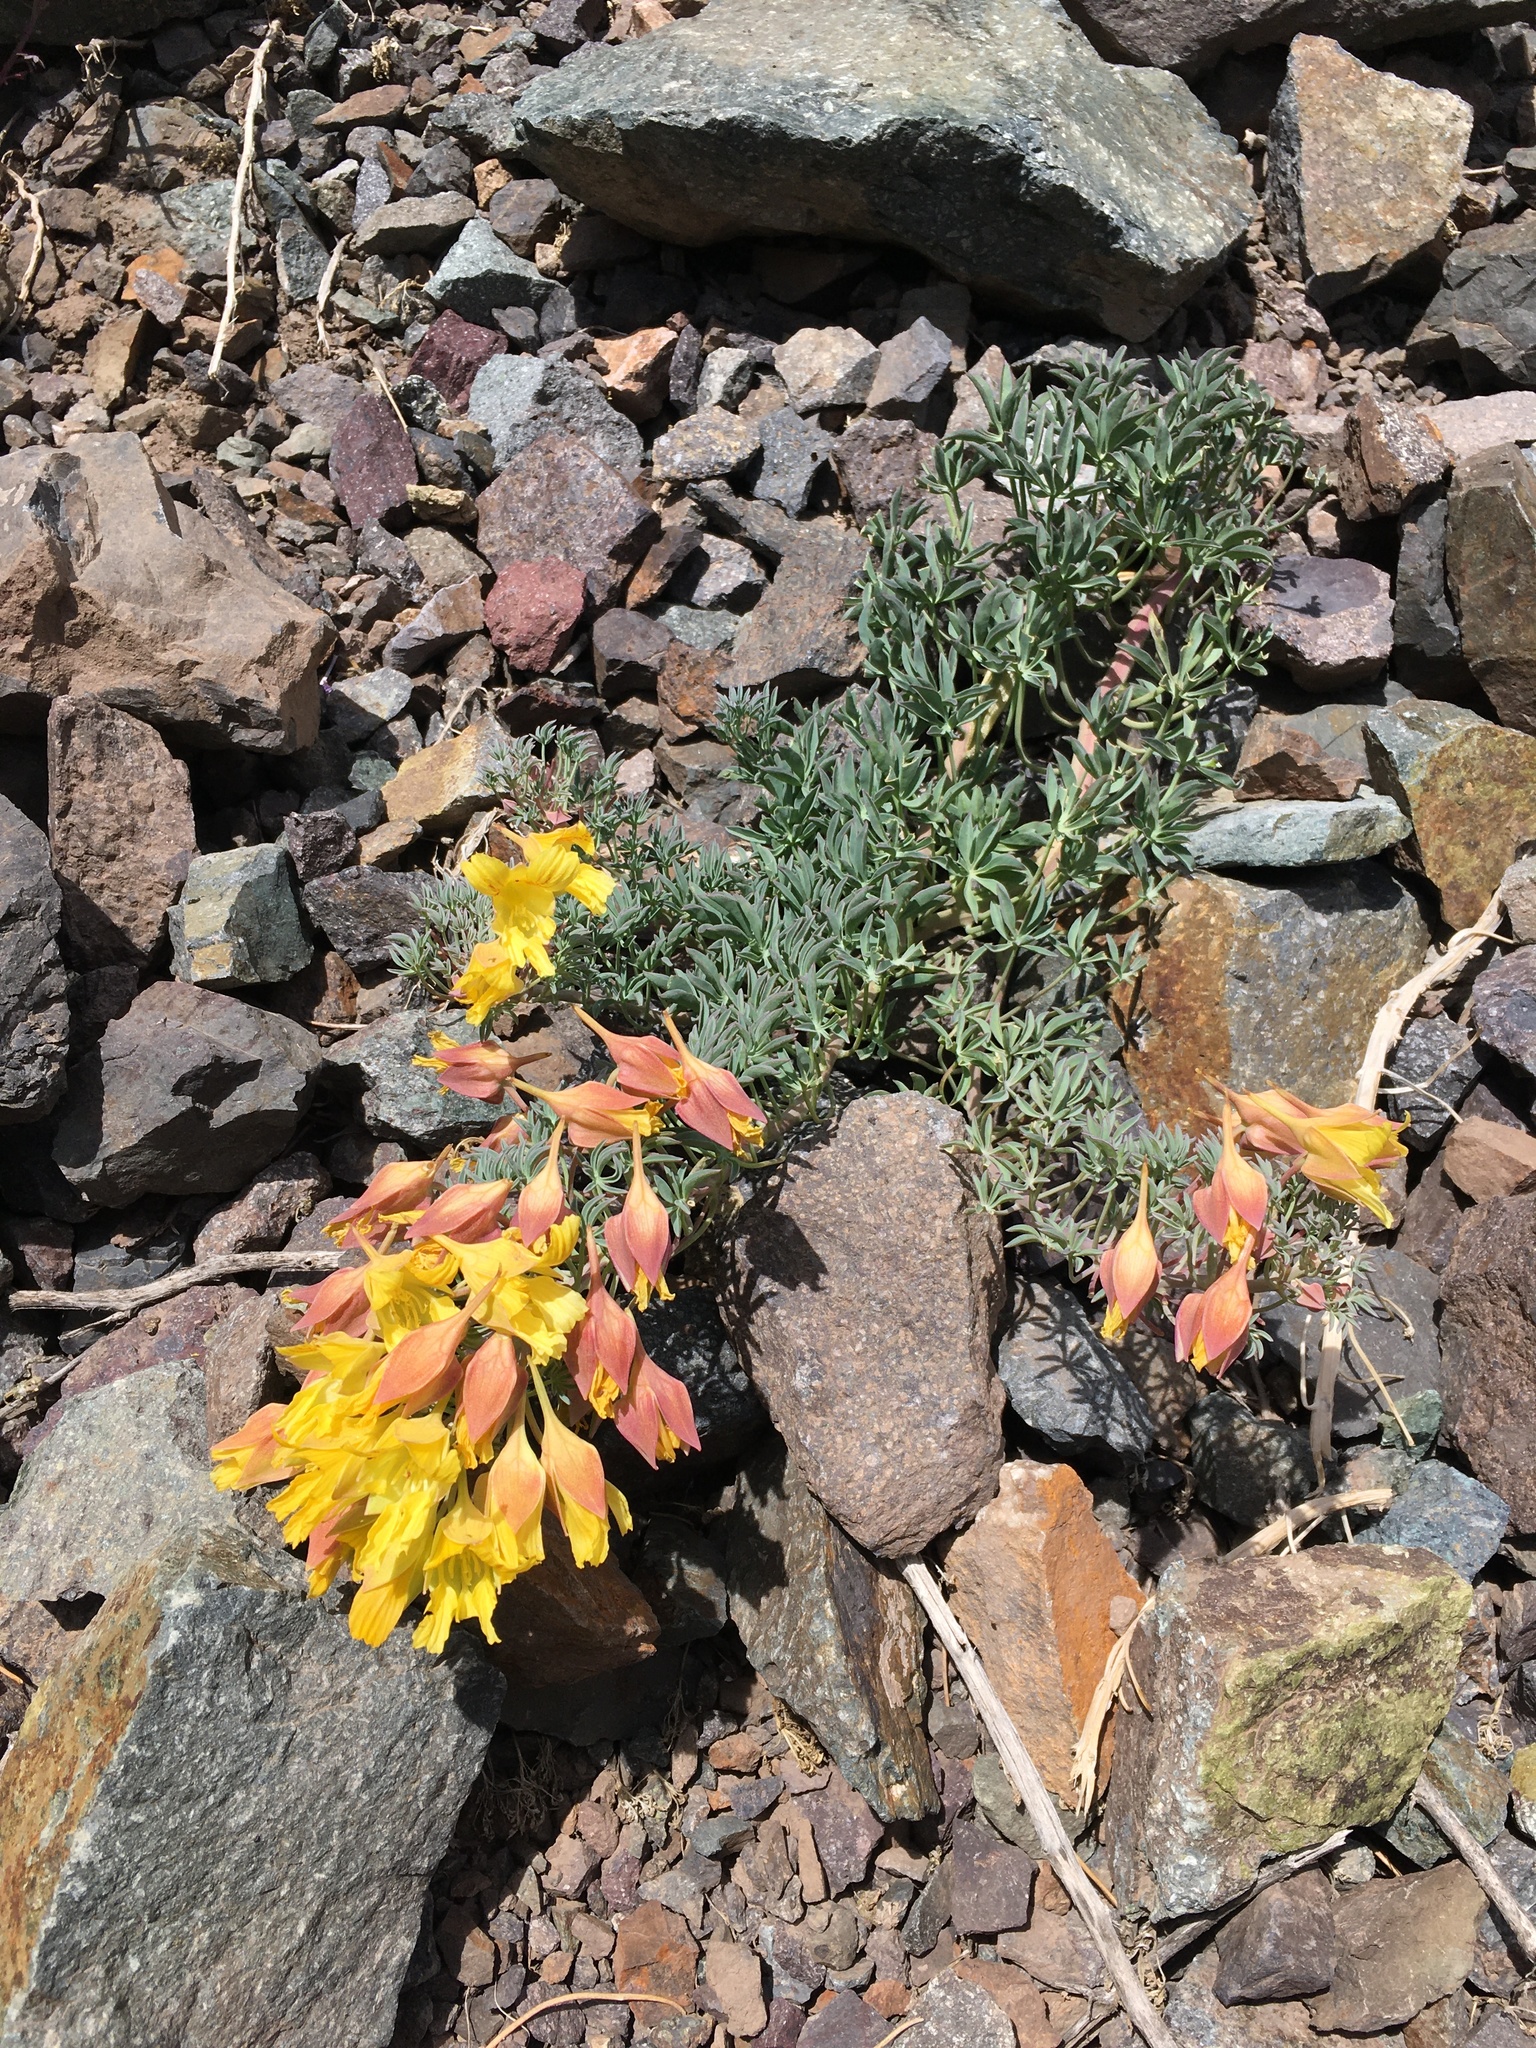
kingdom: Plantae
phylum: Tracheophyta
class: Magnoliopsida
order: Brassicales
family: Tropaeolaceae
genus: Tropaeolum
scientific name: Tropaeolum polyphyllum
